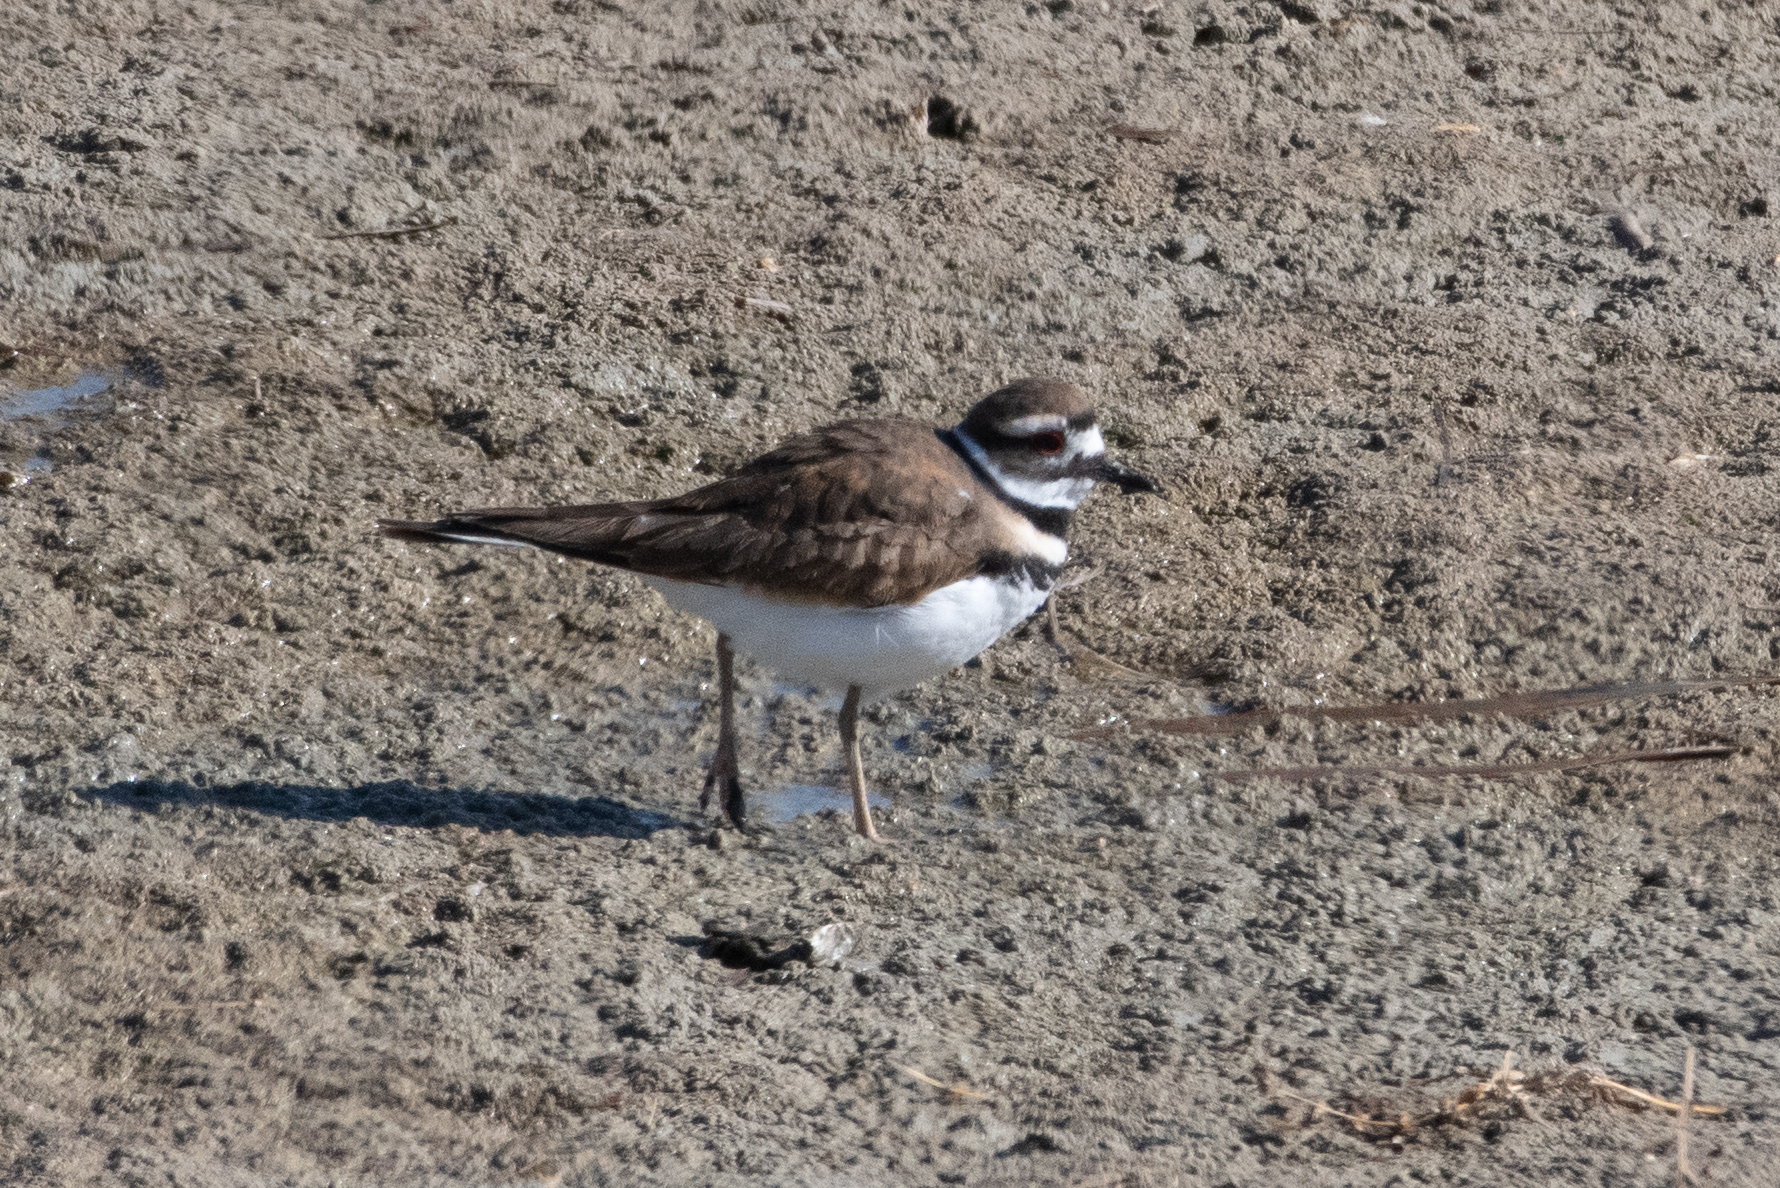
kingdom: Animalia
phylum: Chordata
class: Aves
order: Charadriiformes
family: Charadriidae
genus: Charadrius
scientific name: Charadrius vociferus
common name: Killdeer
